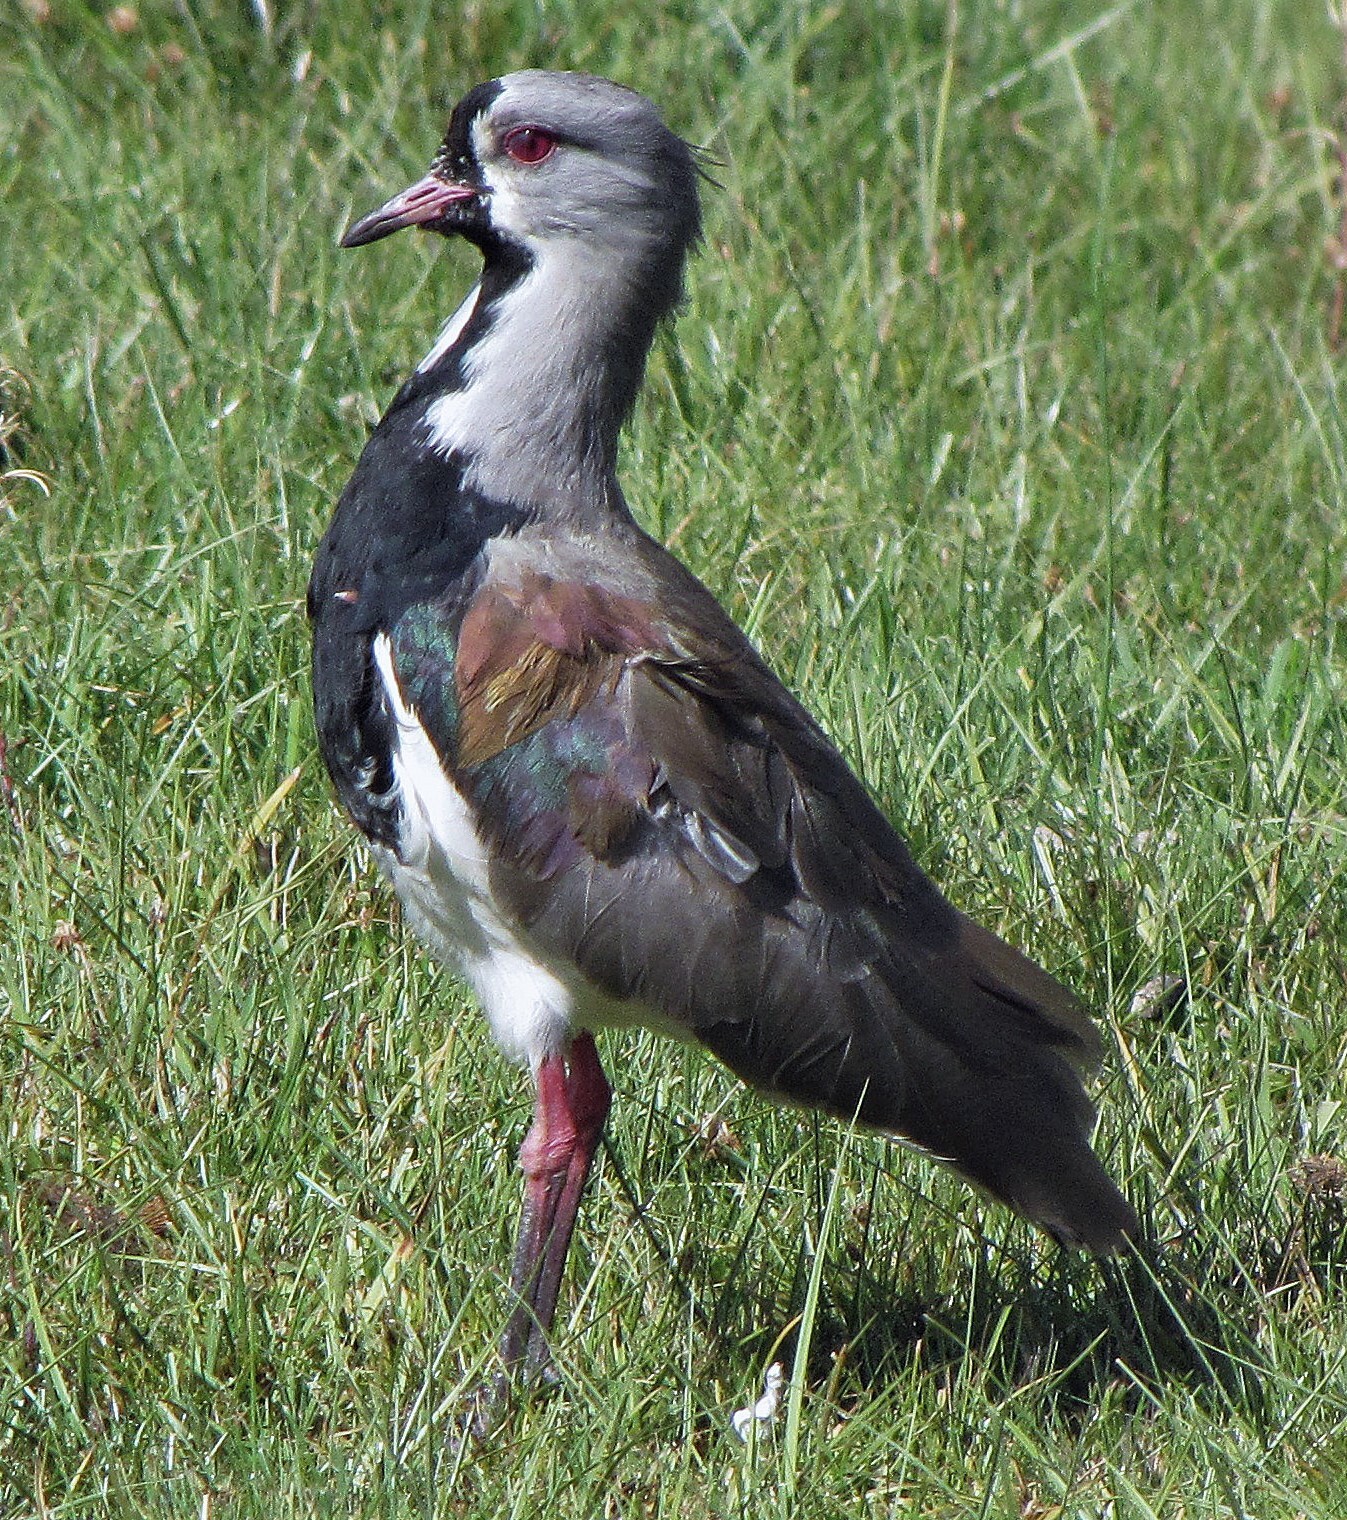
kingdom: Animalia
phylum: Chordata
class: Aves
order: Charadriiformes
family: Charadriidae
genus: Vanellus
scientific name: Vanellus chilensis
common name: Southern lapwing
